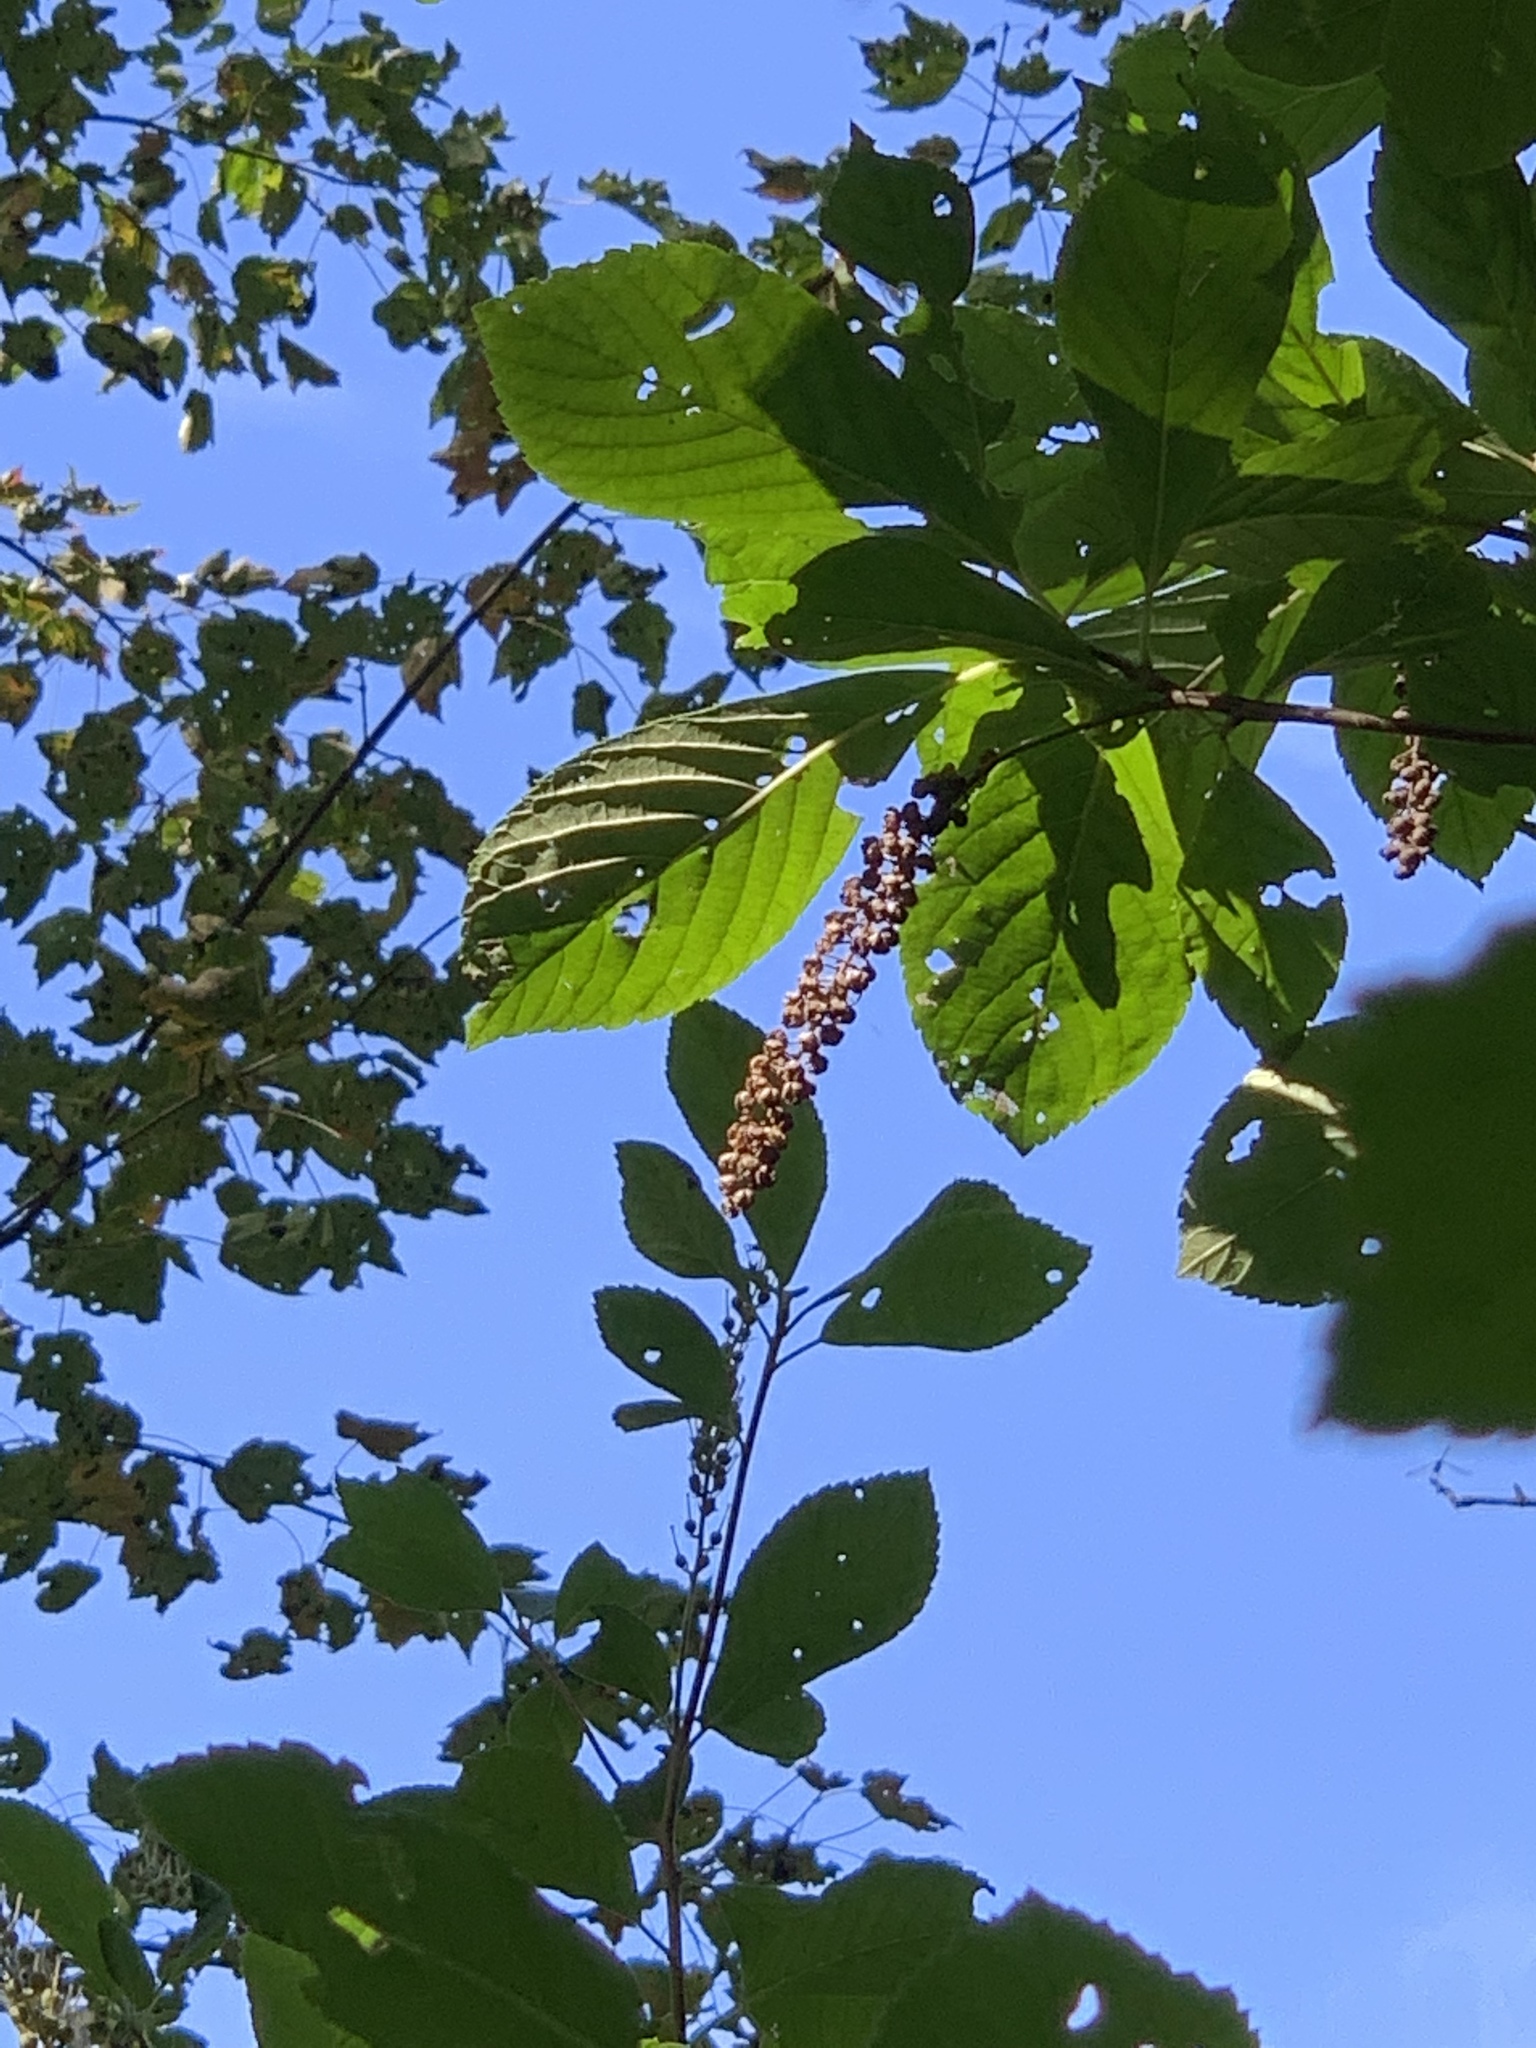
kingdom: Plantae
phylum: Tracheophyta
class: Magnoliopsida
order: Ericales
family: Clethraceae
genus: Clethra
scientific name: Clethra alnifolia
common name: Sweet pepperbush
